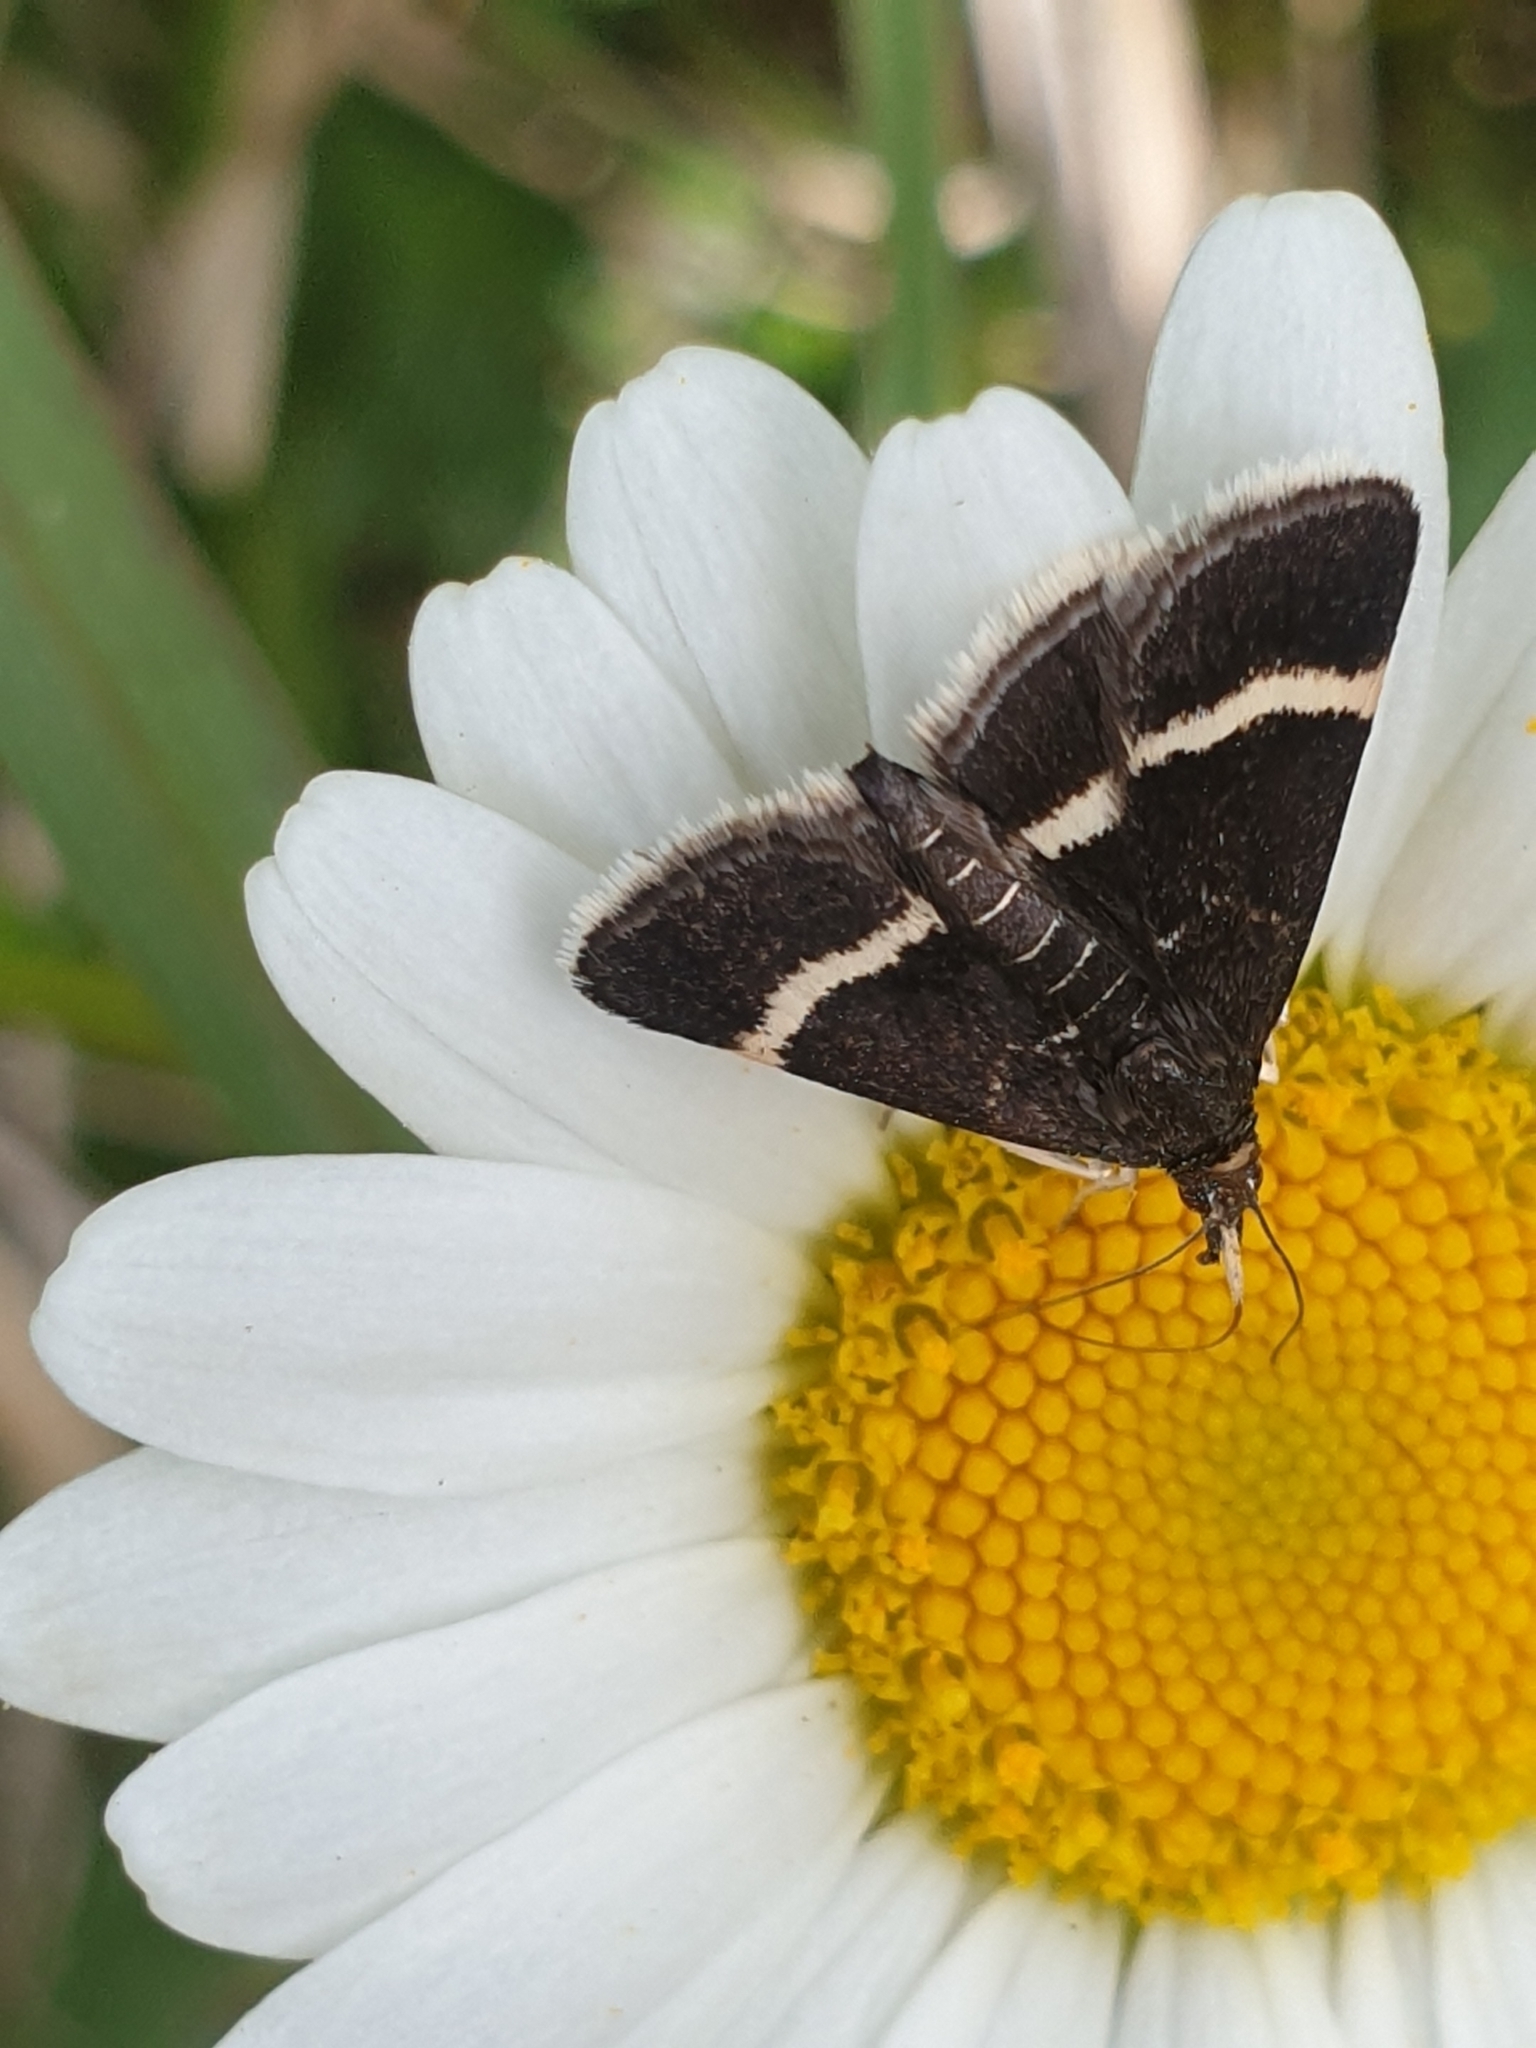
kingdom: Animalia
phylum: Arthropoda
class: Insecta
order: Lepidoptera
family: Crambidae
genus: Pyrausta
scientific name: Pyrausta cingulata
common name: Silver-barred sable
